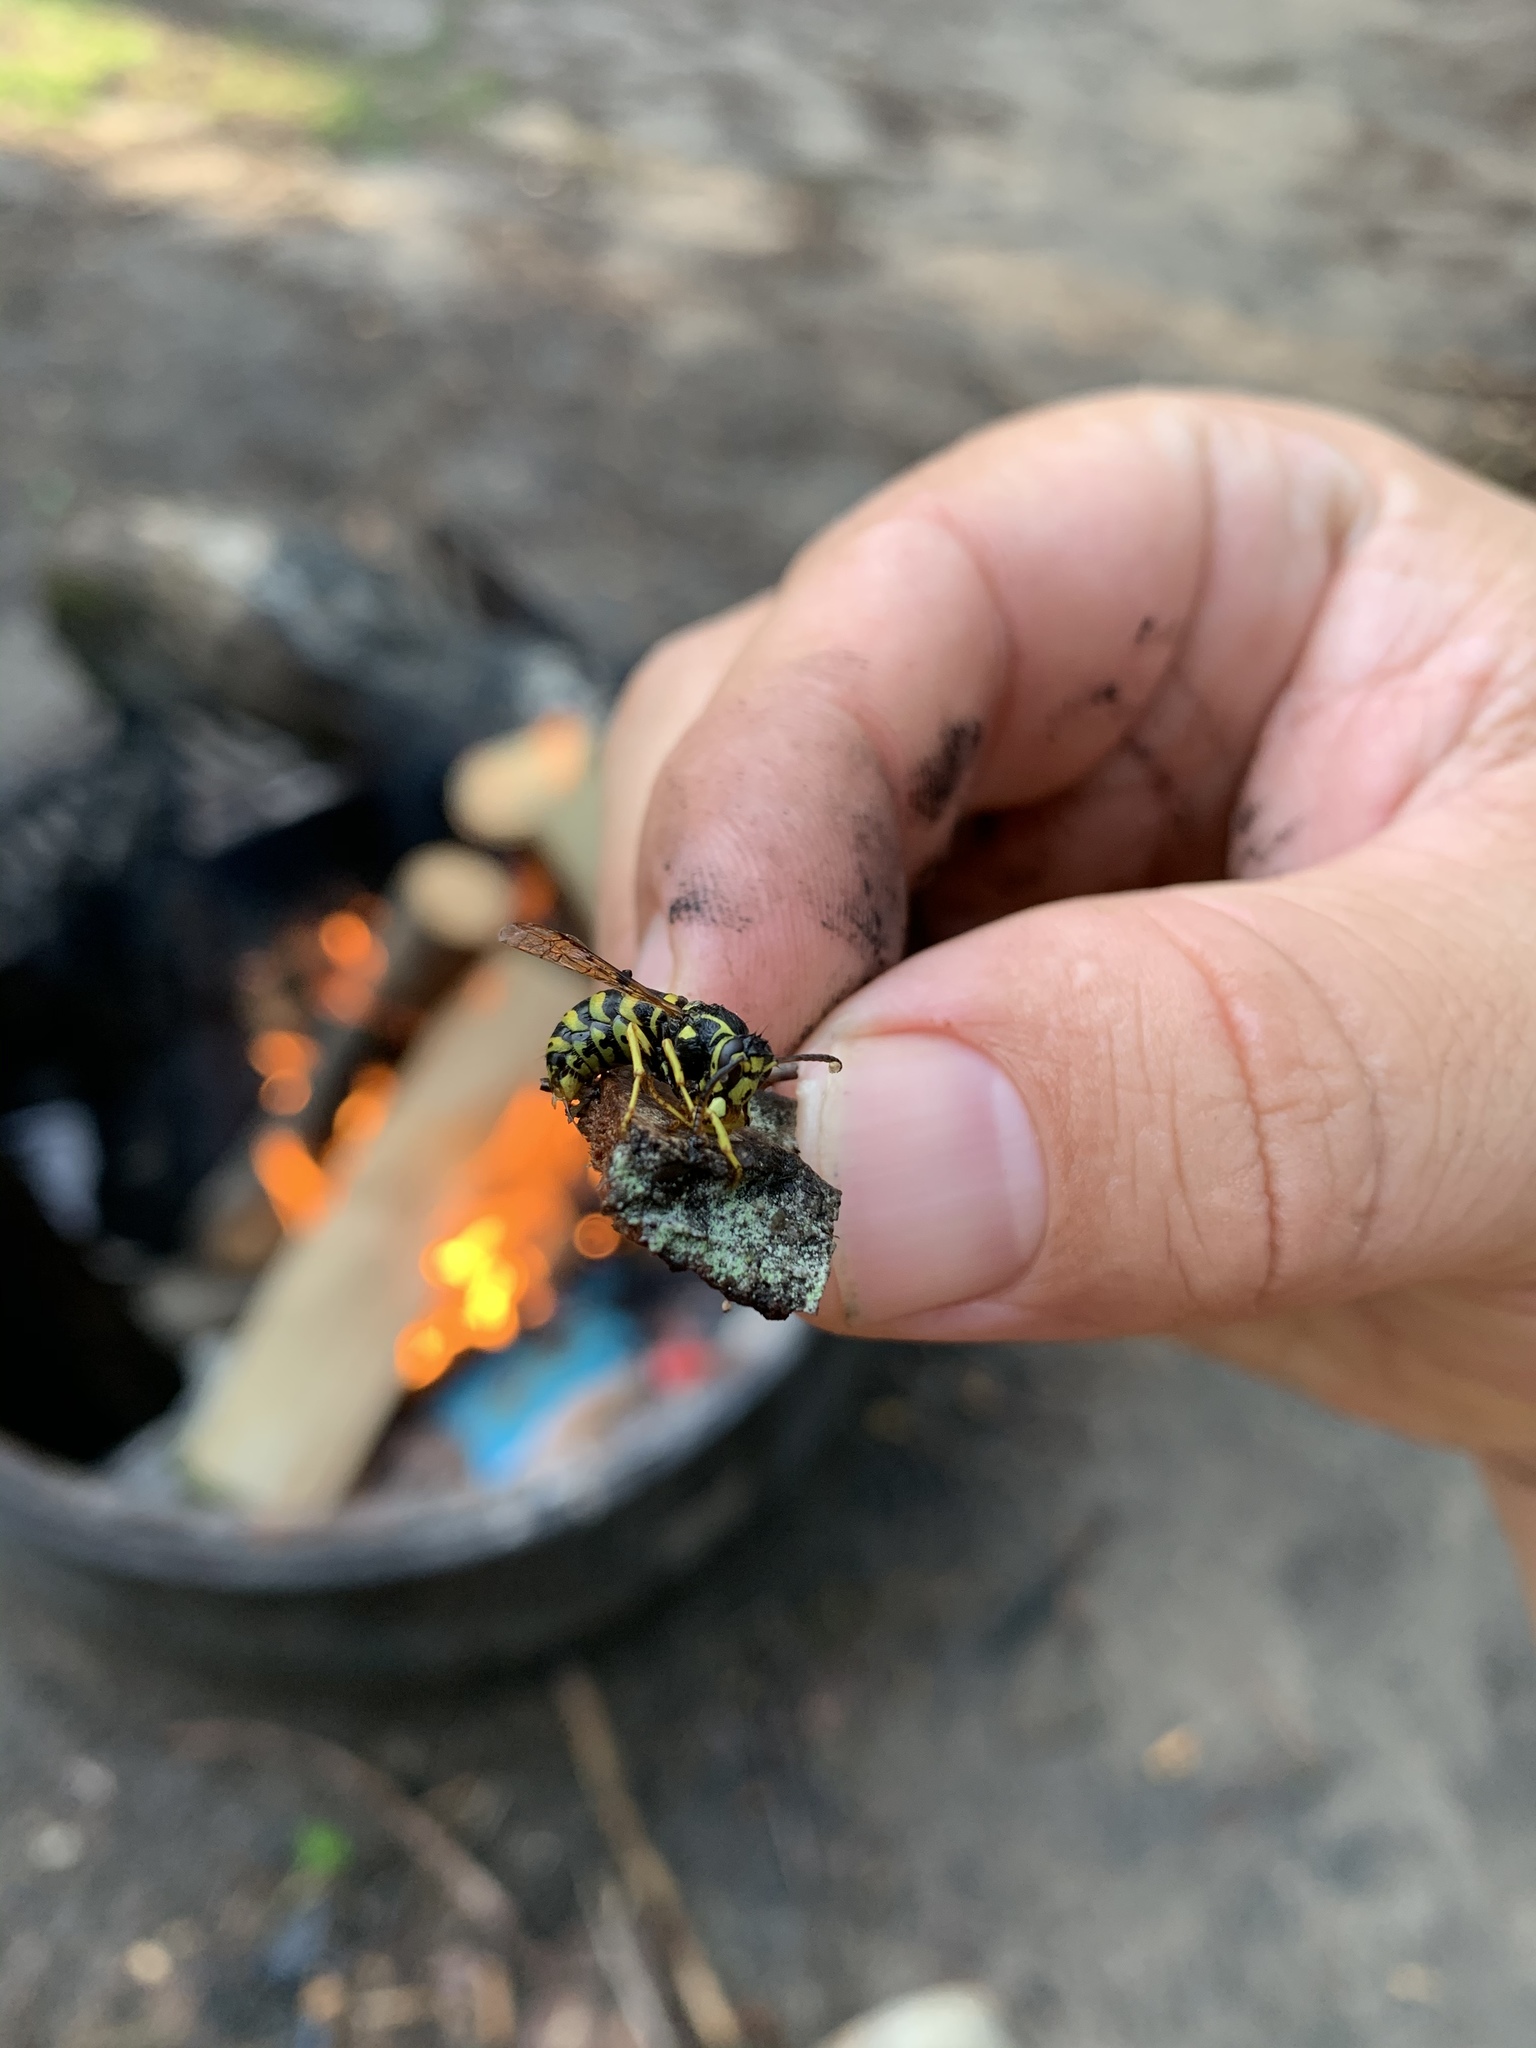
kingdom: Animalia
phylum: Arthropoda
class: Insecta
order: Hymenoptera
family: Vespidae
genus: Dolichovespula
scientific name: Dolichovespula arenaria
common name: Aerial yellowjacket
